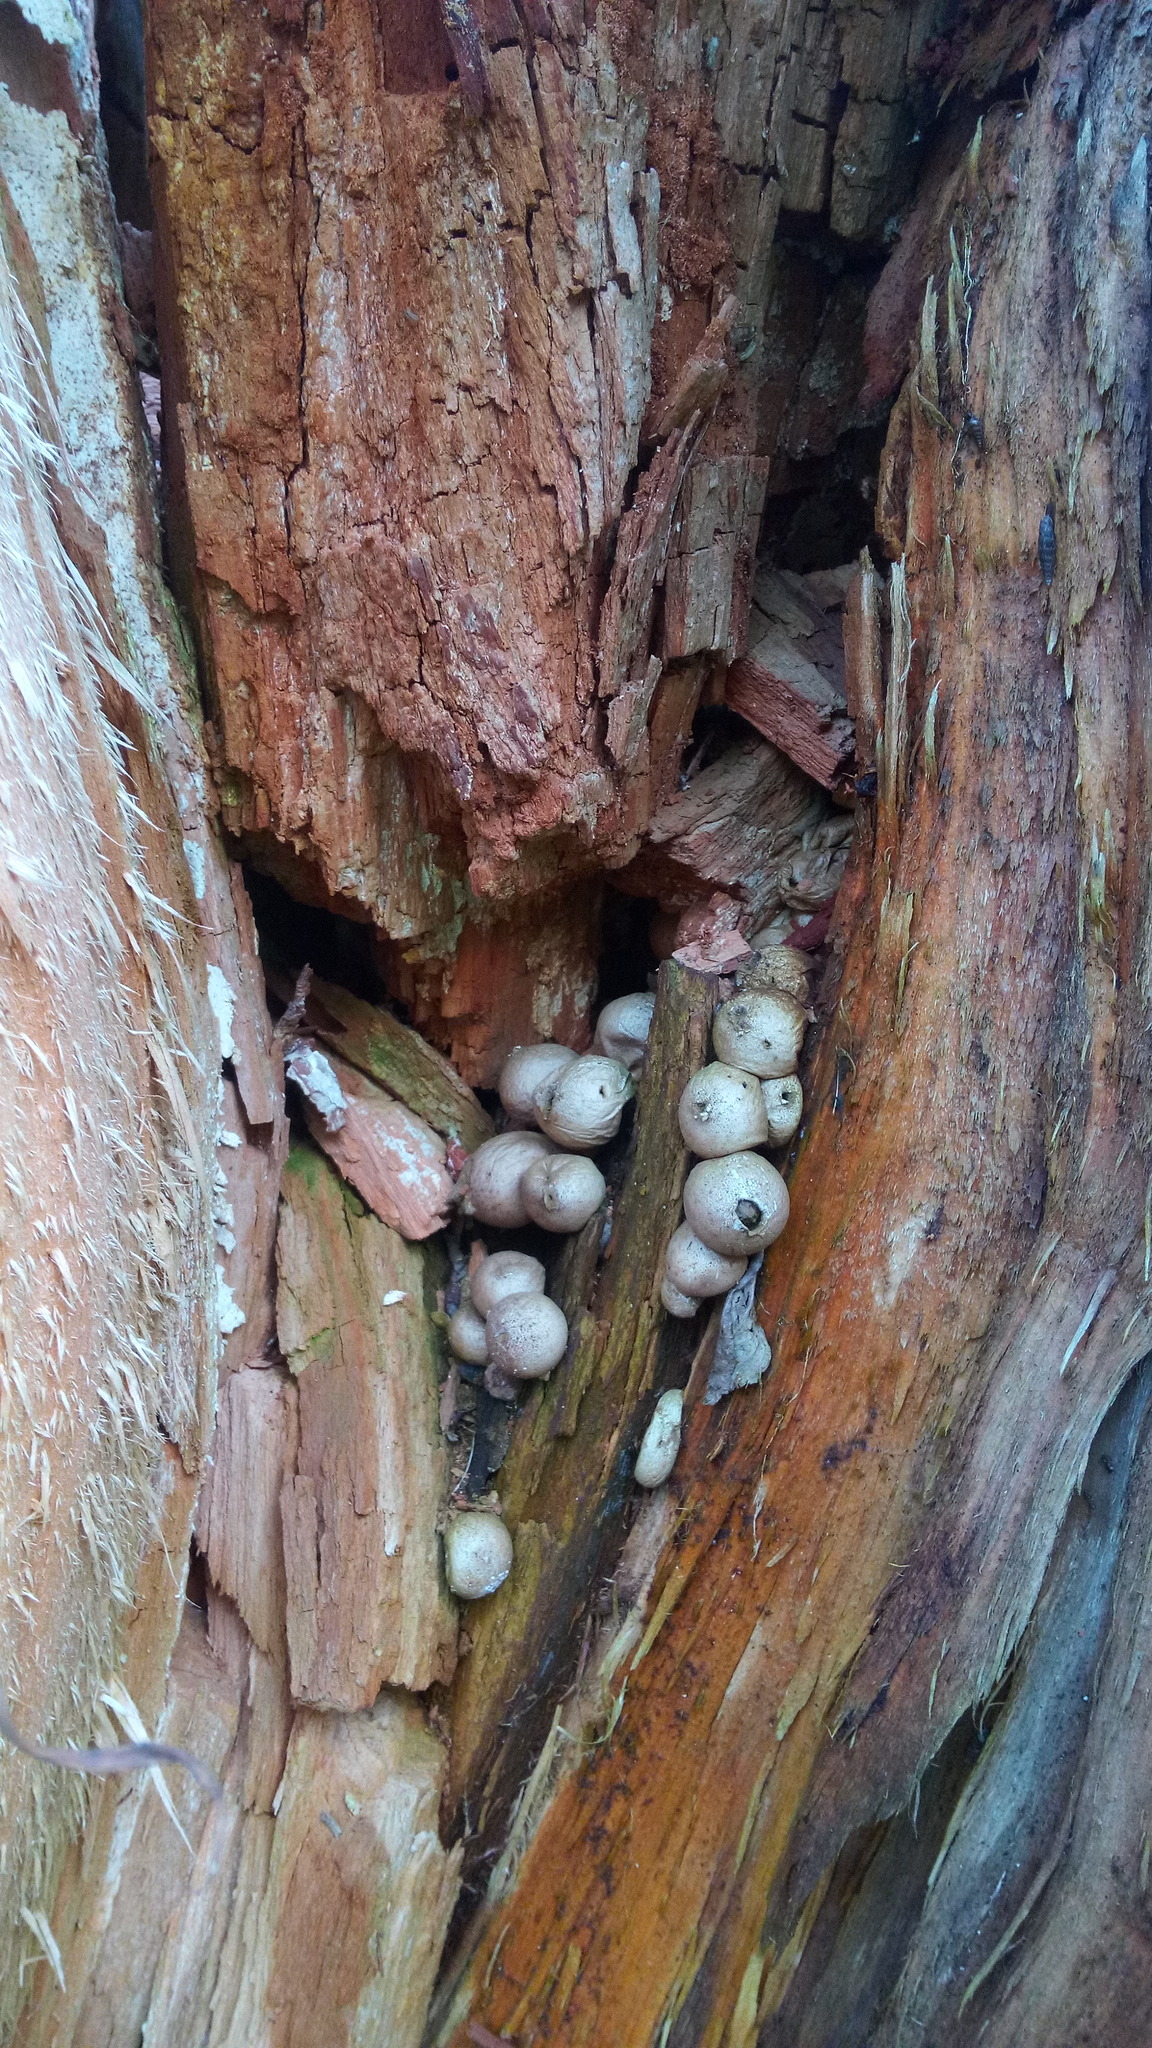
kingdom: Fungi
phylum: Basidiomycota
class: Agaricomycetes
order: Agaricales
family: Lycoperdaceae
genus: Apioperdon
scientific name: Apioperdon pyriforme
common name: Pear-shaped puffball
